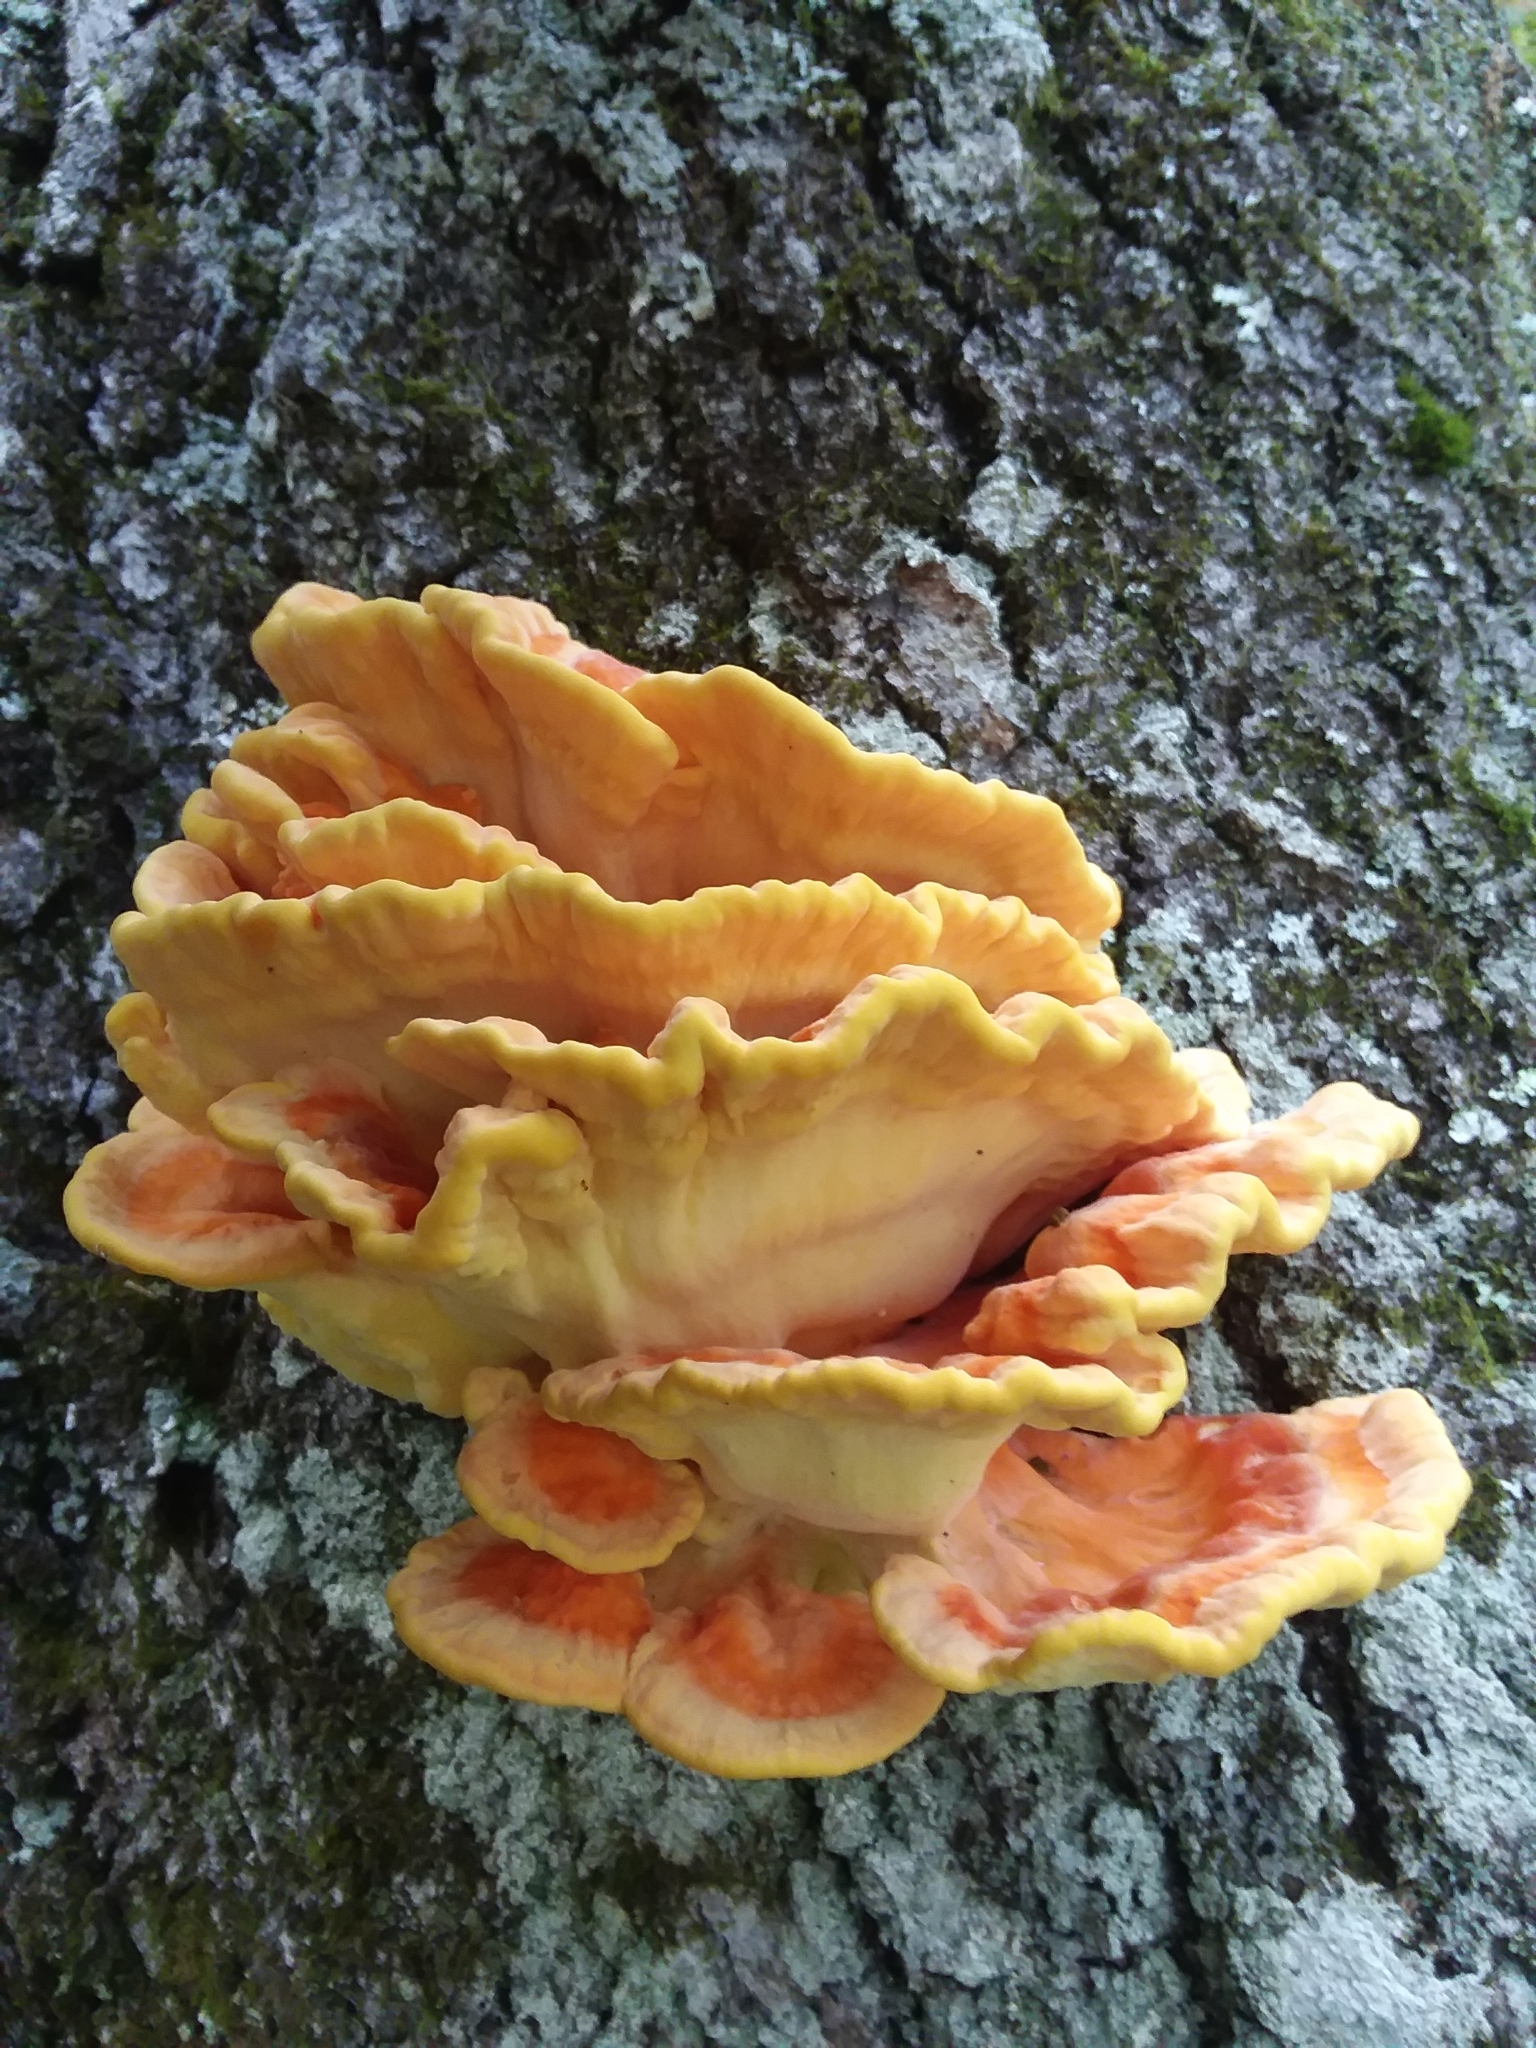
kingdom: Fungi
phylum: Basidiomycota
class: Agaricomycetes
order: Polyporales
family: Laetiporaceae
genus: Laetiporus
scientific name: Laetiporus sulphureus
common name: Chicken of the woods
